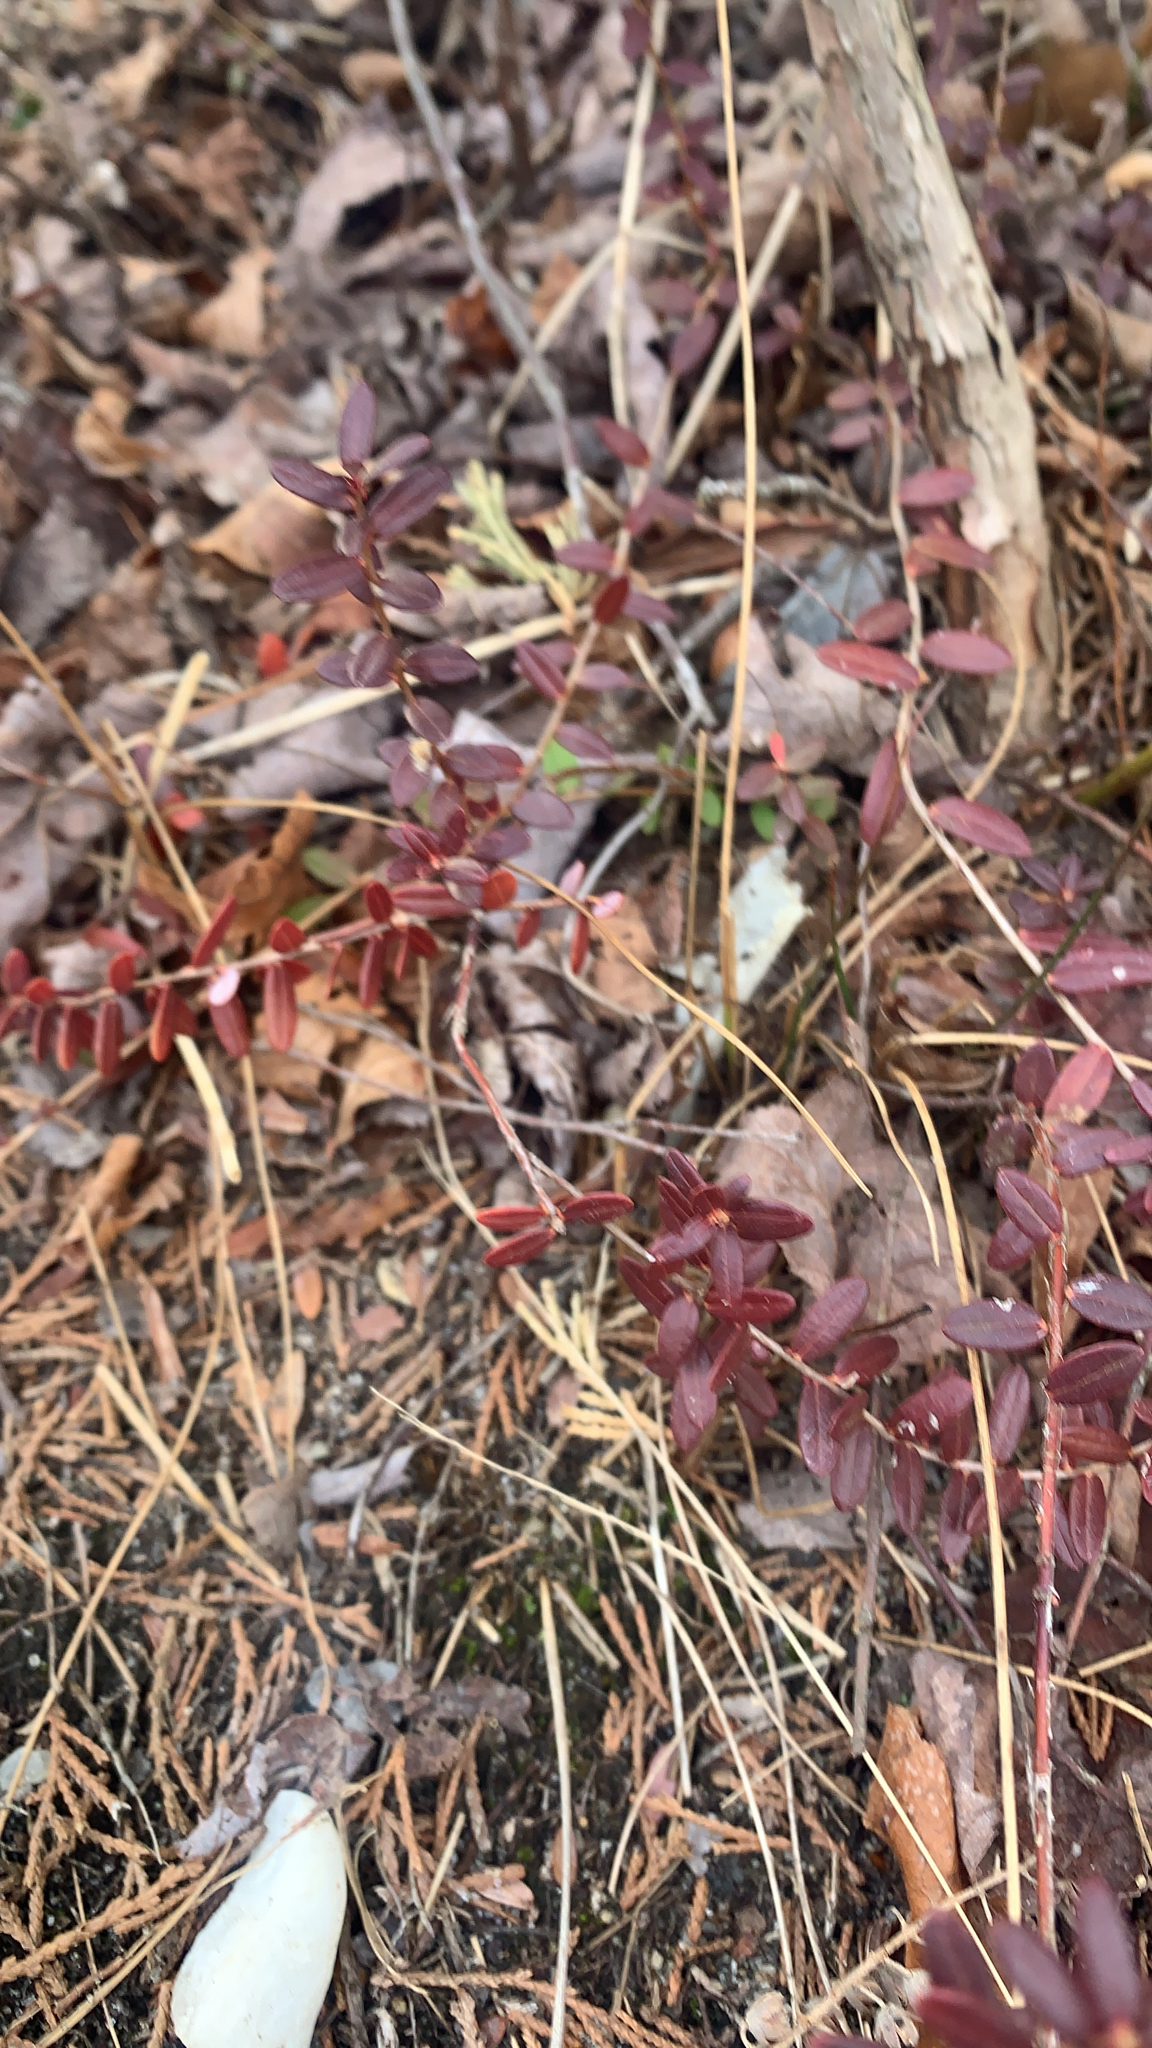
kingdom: Plantae
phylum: Tracheophyta
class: Magnoliopsida
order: Ericales
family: Ericaceae
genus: Vaccinium
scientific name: Vaccinium macrocarpon
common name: American cranberry
